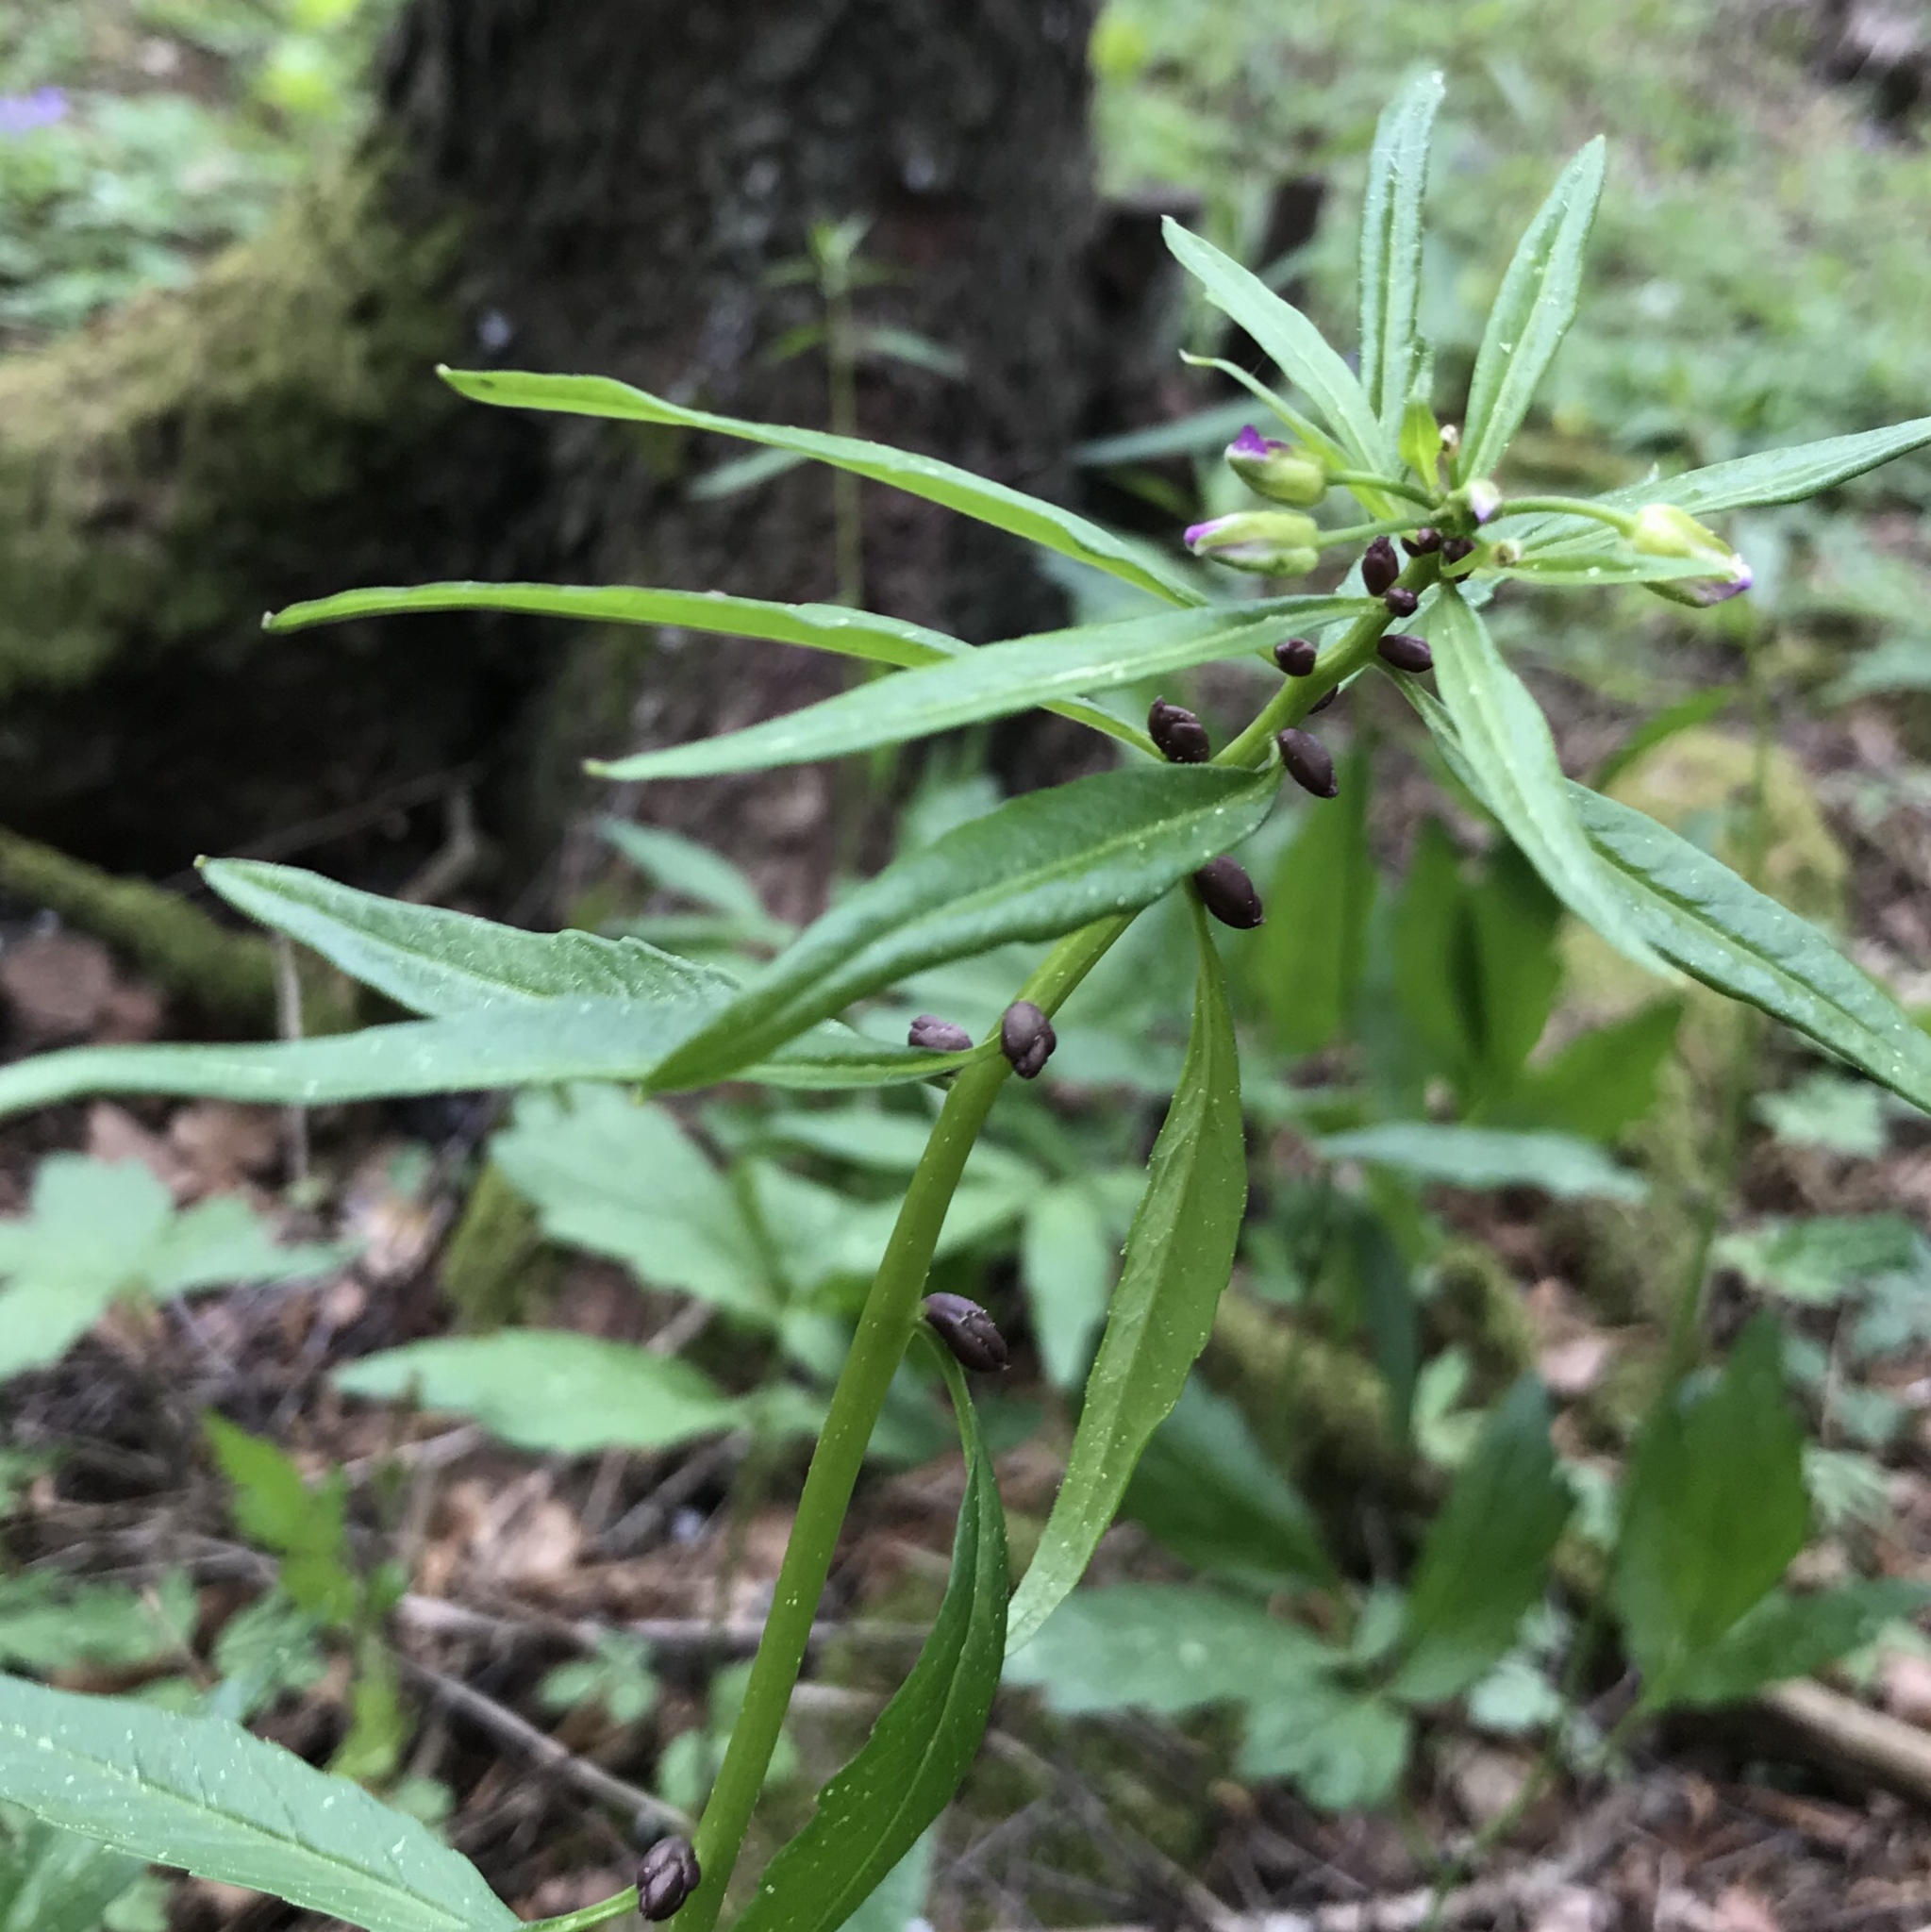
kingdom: Plantae
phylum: Tracheophyta
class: Magnoliopsida
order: Brassicales
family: Brassicaceae
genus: Cardamine
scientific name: Cardamine bulbifera
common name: Coralroot bittercress
